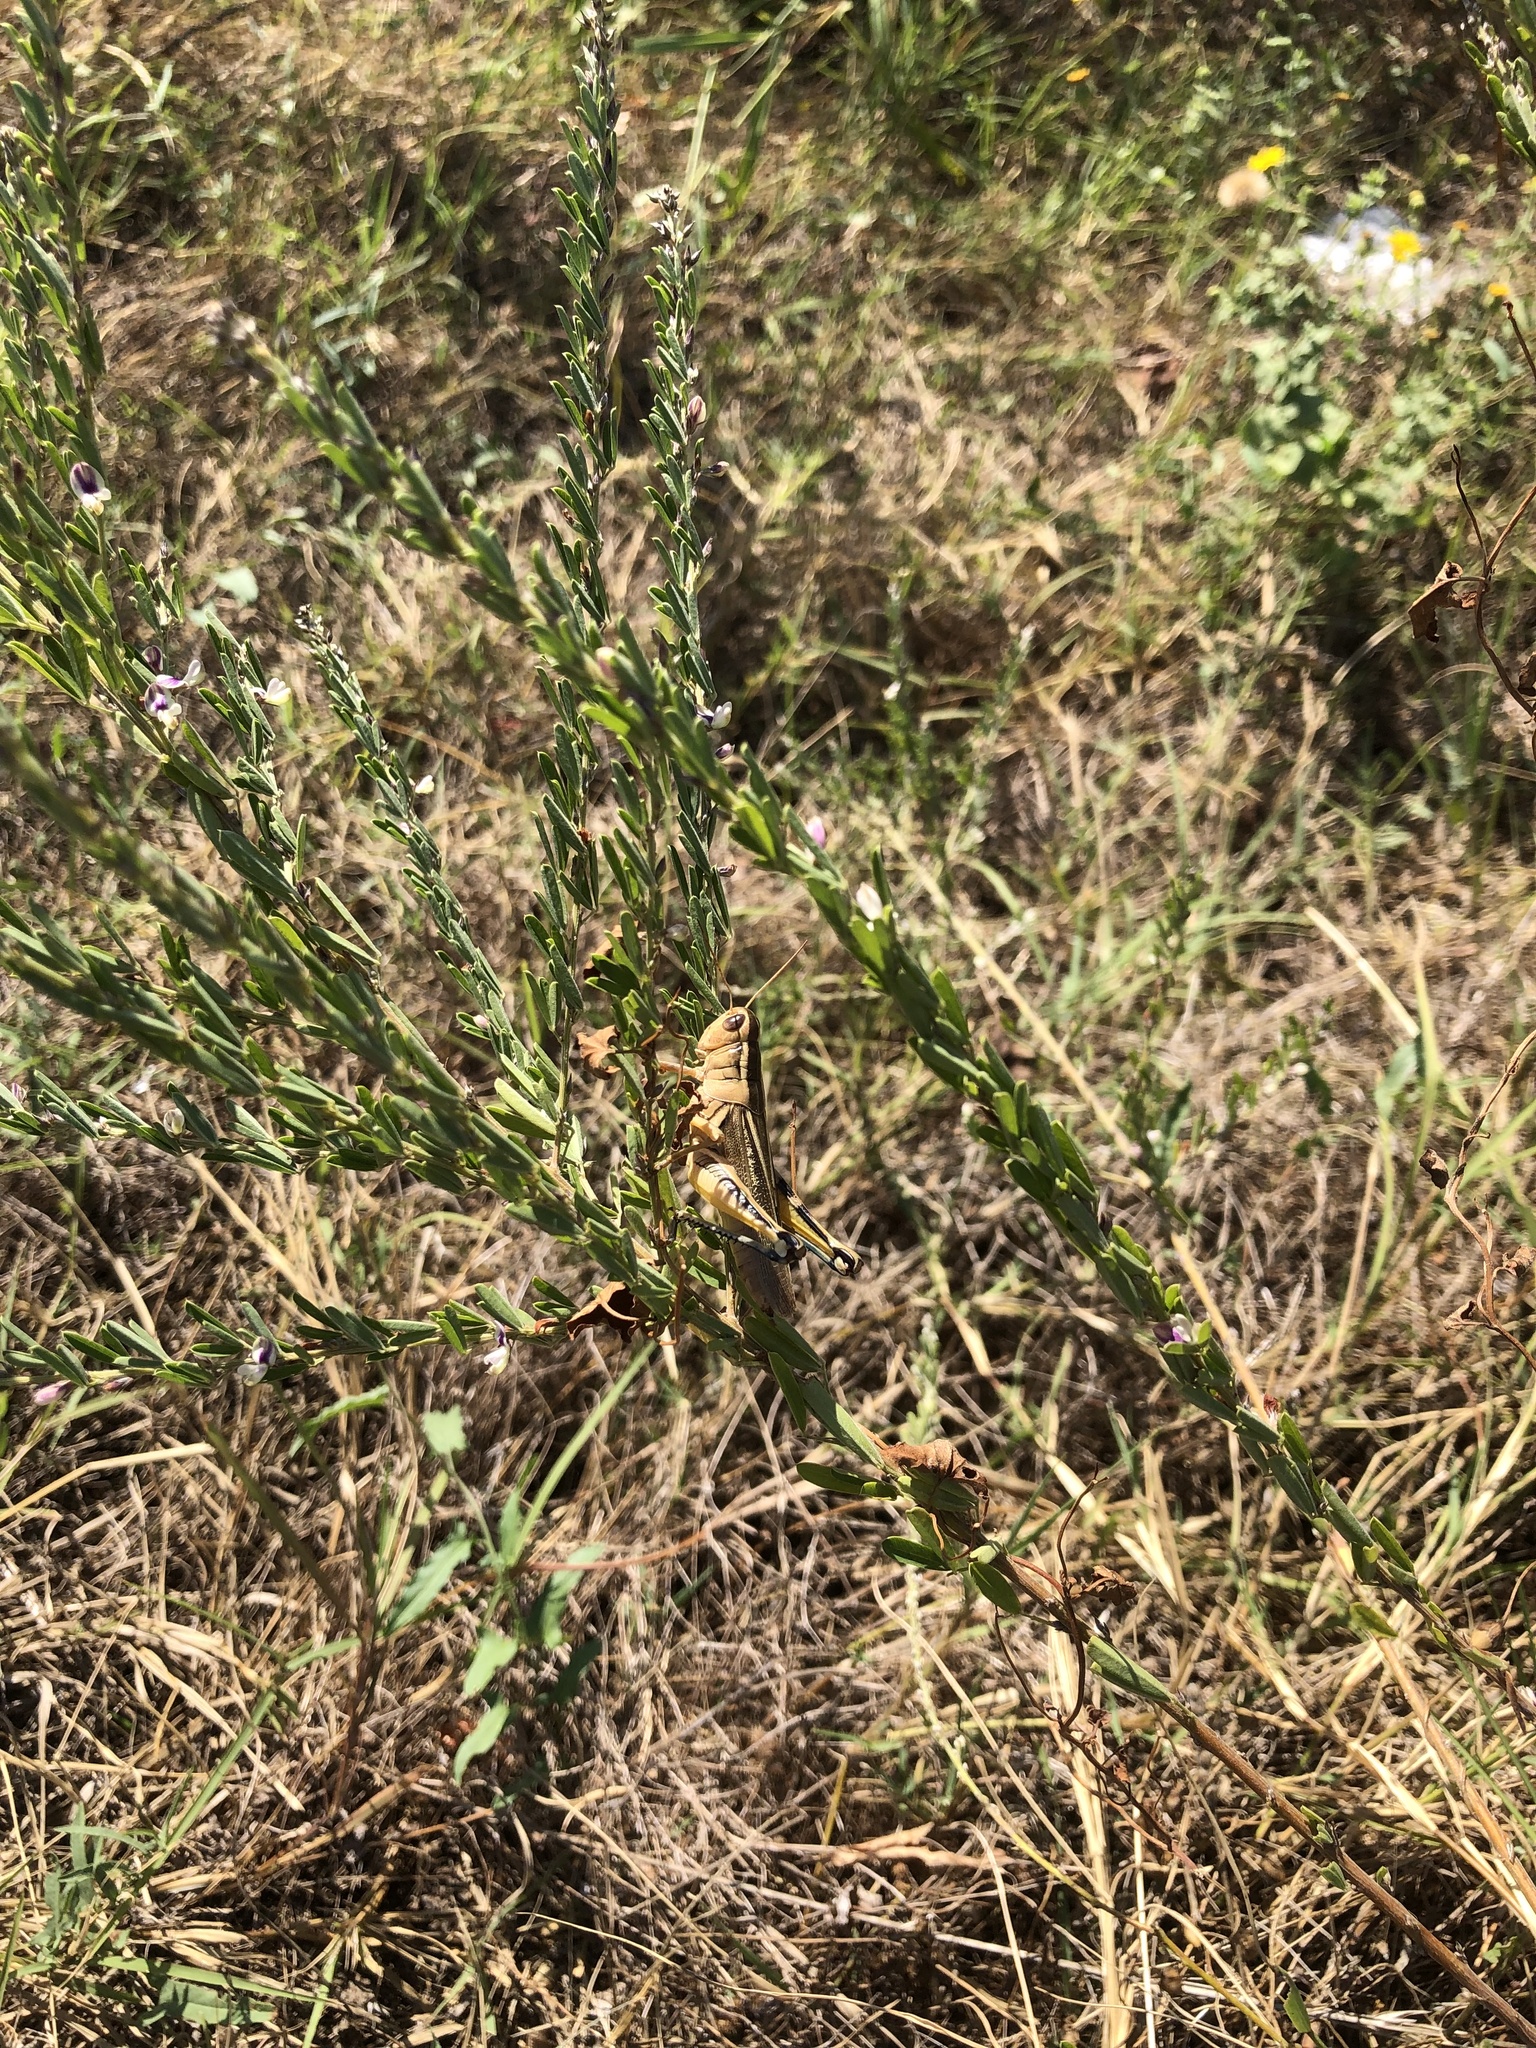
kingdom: Plantae
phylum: Tracheophyta
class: Magnoliopsida
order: Fabales
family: Fabaceae
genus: Lespedeza
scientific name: Lespedeza cuneata
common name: Chinese bush-clover
